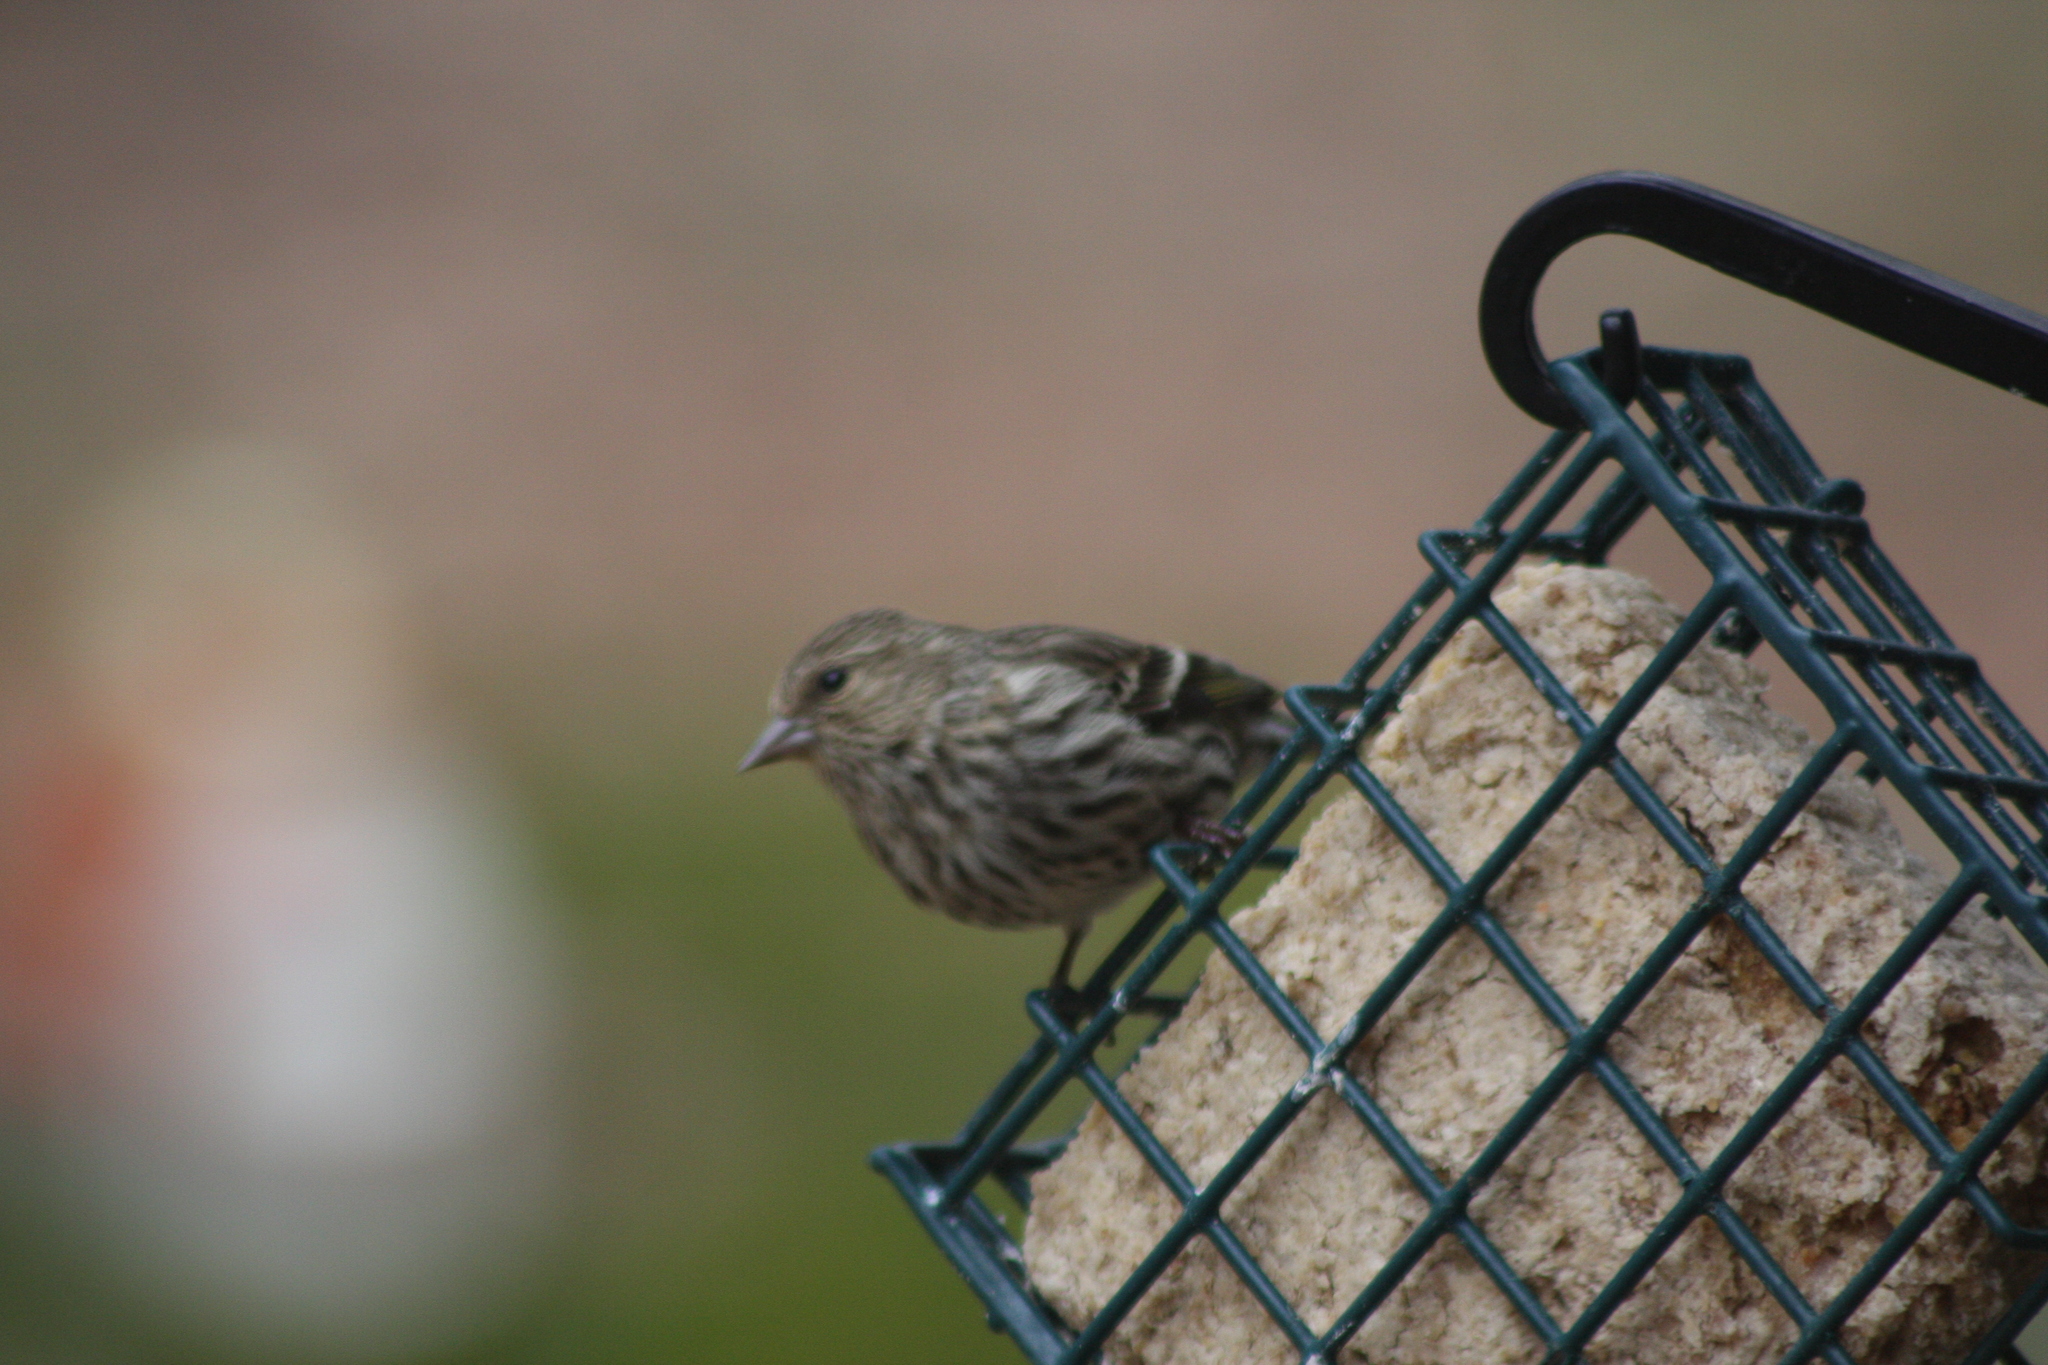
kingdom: Animalia
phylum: Chordata
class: Aves
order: Passeriformes
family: Fringillidae
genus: Spinus
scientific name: Spinus pinus
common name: Pine siskin
